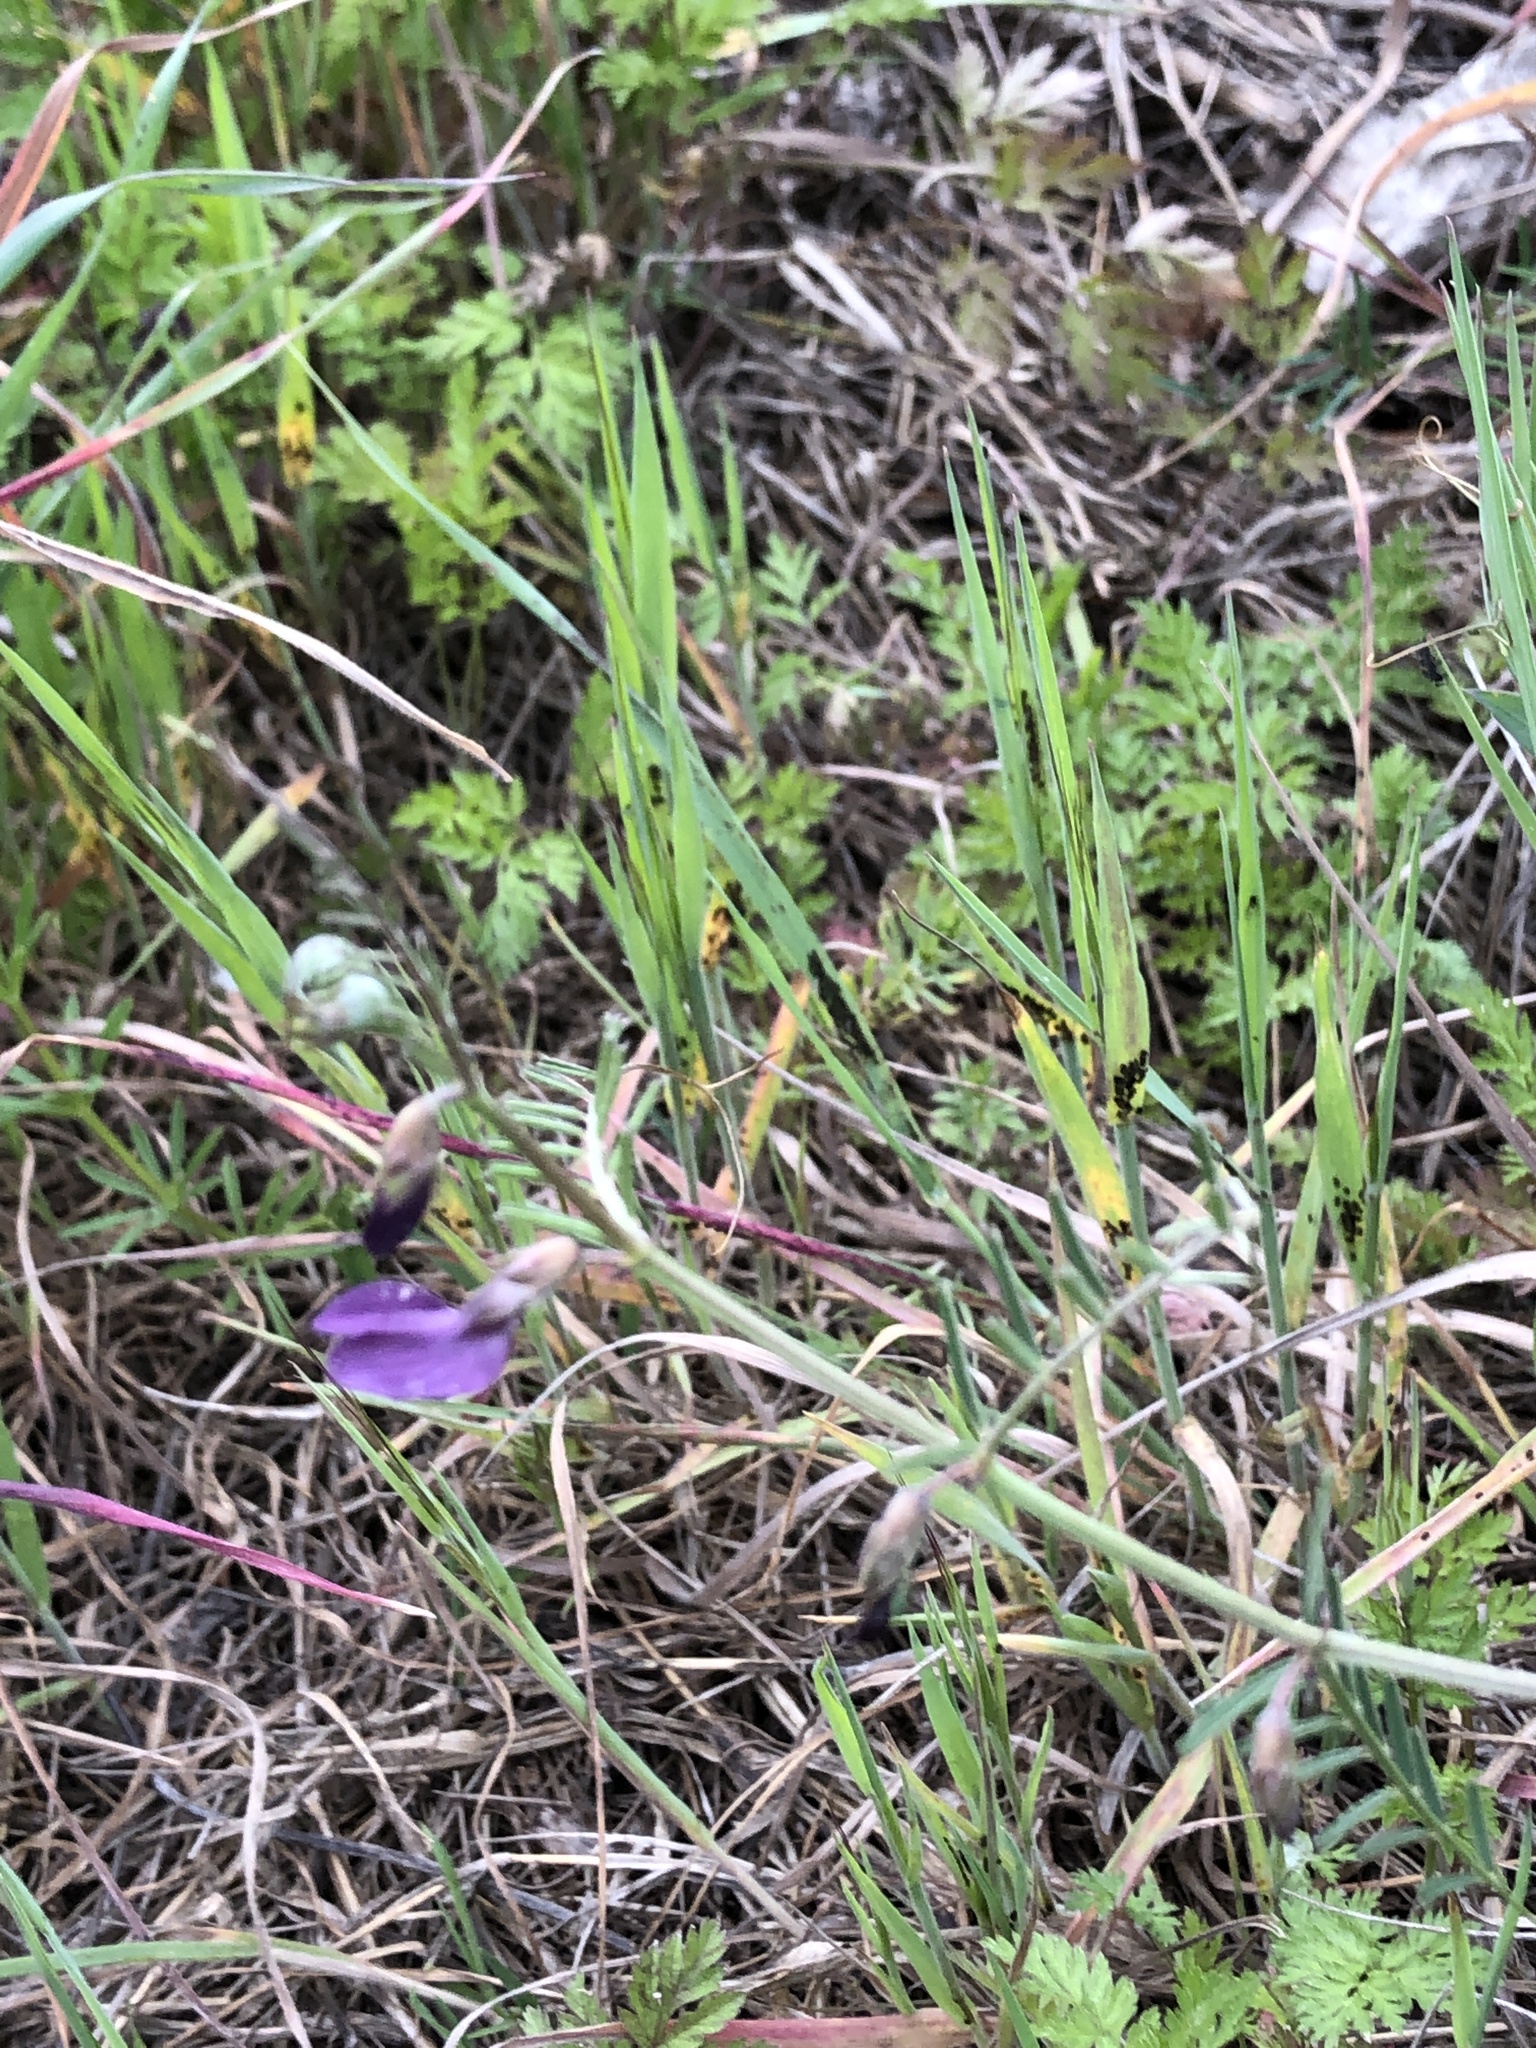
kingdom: Plantae
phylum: Tracheophyta
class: Magnoliopsida
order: Fabales
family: Fabaceae
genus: Vicia
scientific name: Vicia peregrina
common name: Broad-pod vetch
